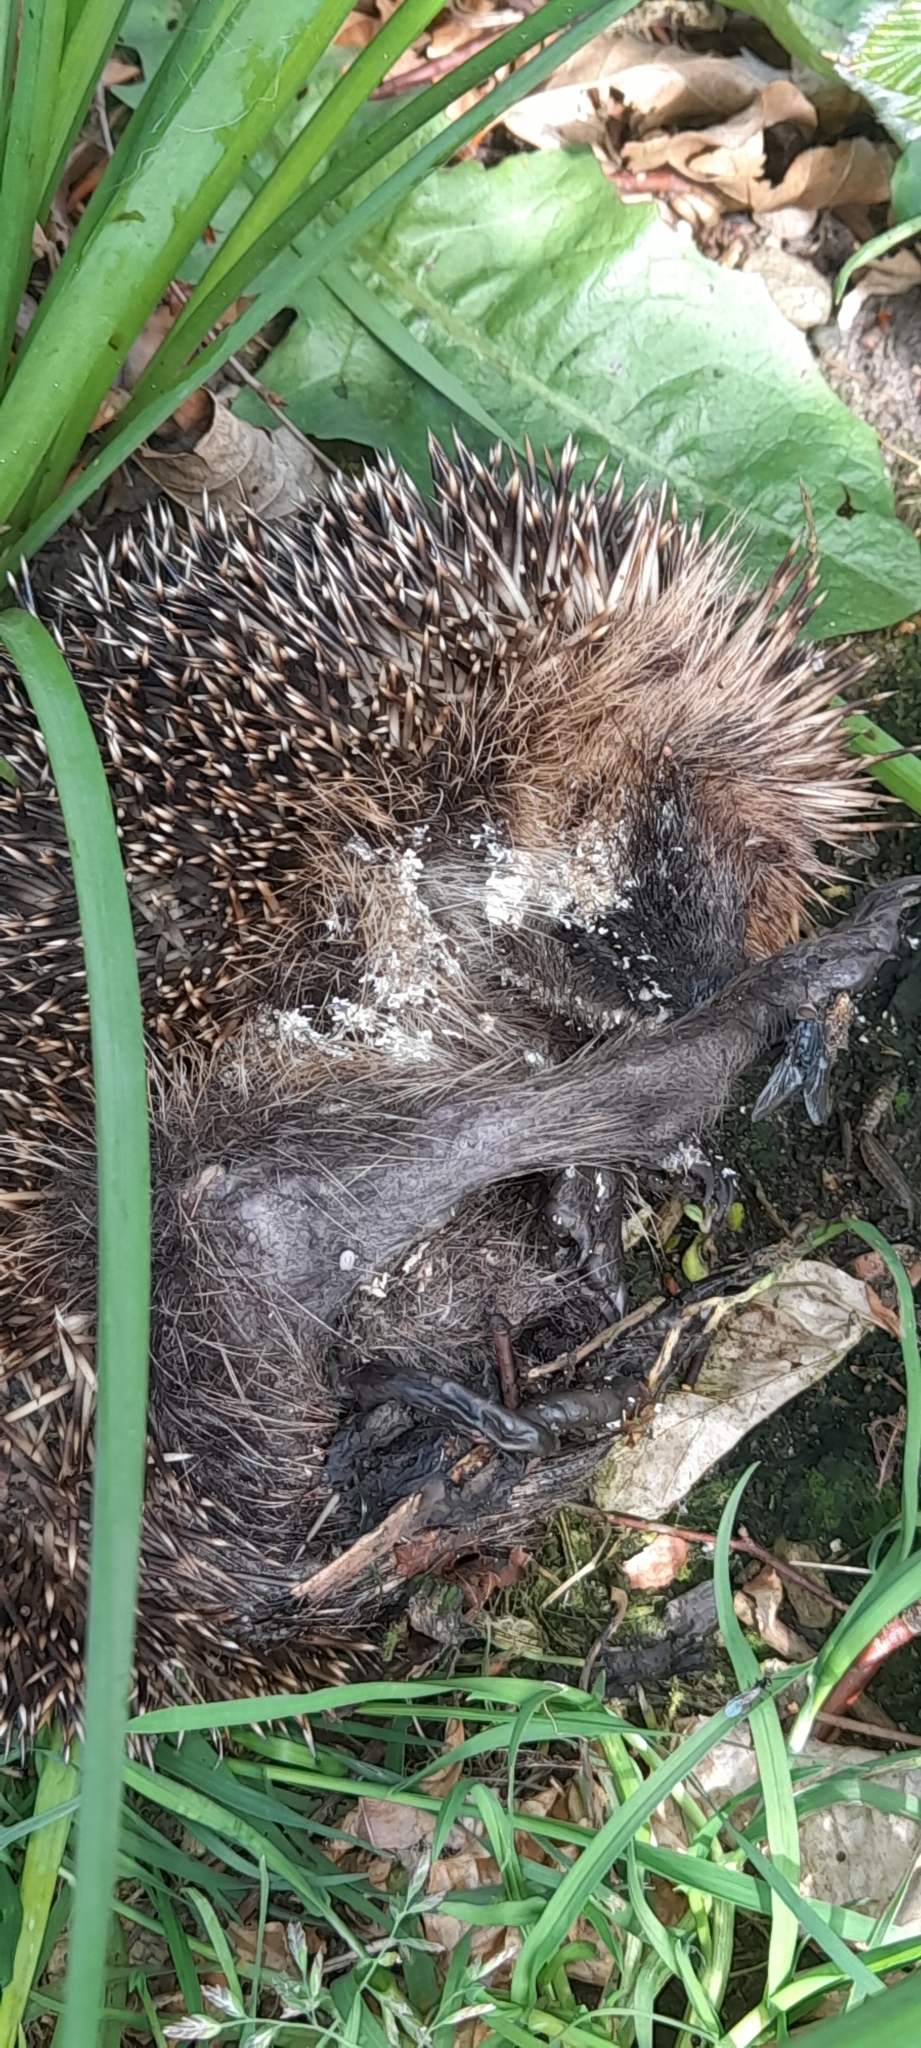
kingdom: Animalia
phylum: Chordata
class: Mammalia
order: Erinaceomorpha
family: Erinaceidae
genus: Erinaceus
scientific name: Erinaceus europaeus
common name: West european hedgehog
